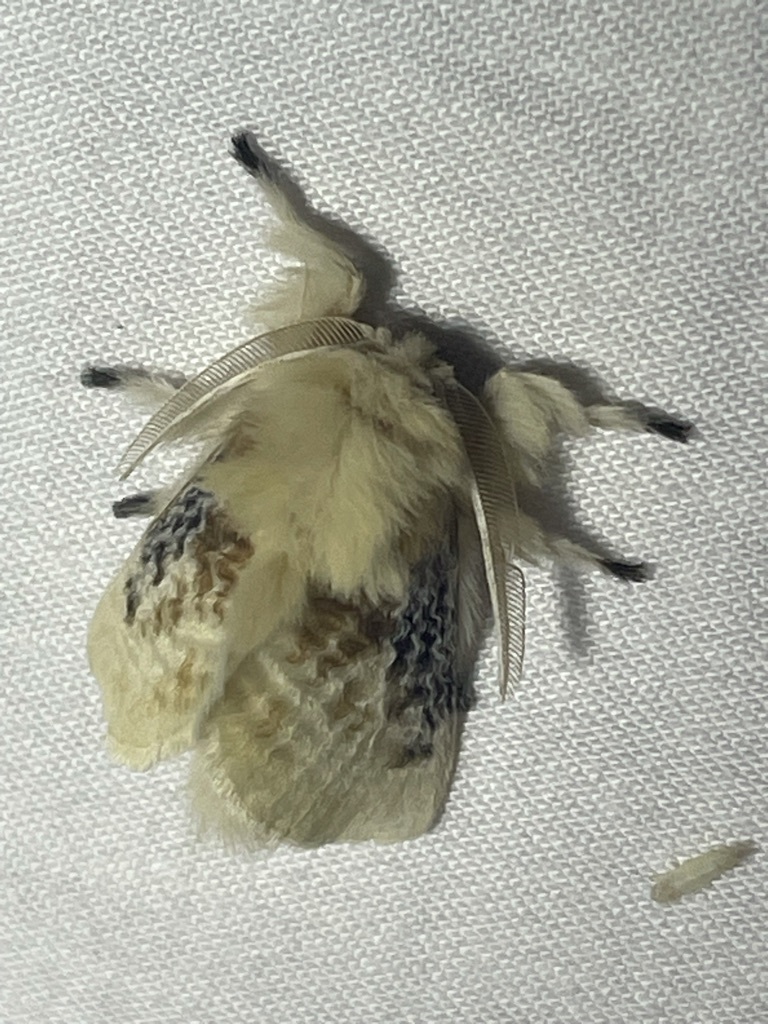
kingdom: Animalia
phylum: Arthropoda
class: Insecta
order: Lepidoptera
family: Megalopygidae
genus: Megalopyge
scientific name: Megalopyge crispata
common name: Black-waved flannel moth
